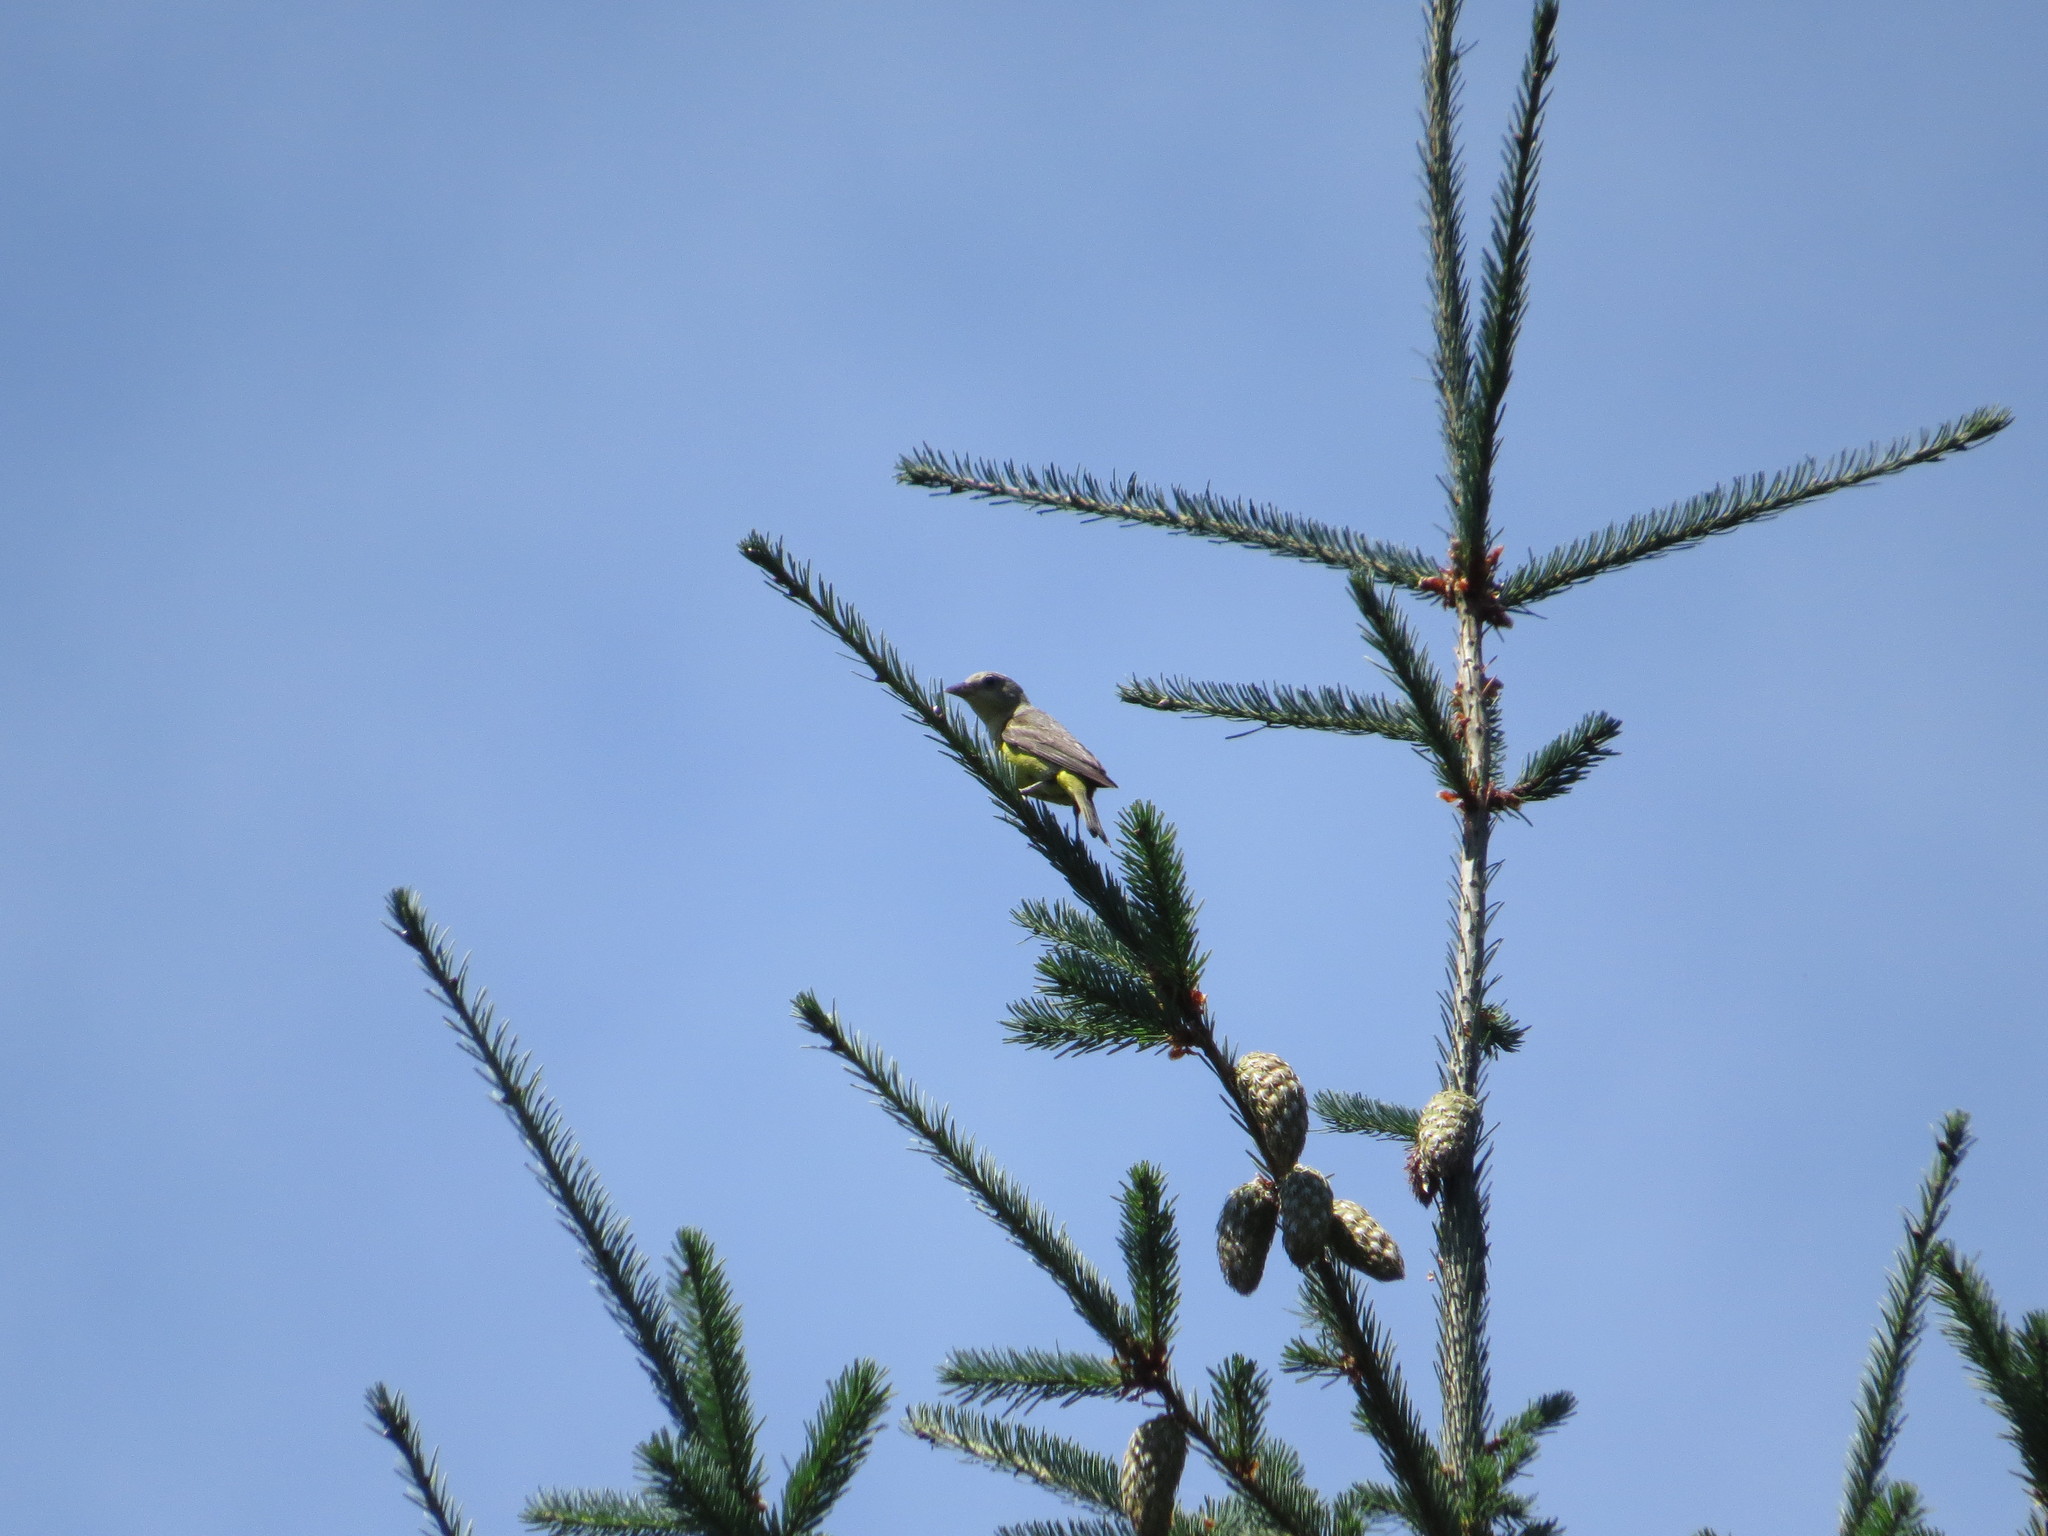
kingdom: Animalia
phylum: Chordata
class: Aves
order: Passeriformes
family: Cardinalidae
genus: Piranga
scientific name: Piranga ludoviciana
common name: Western tanager
